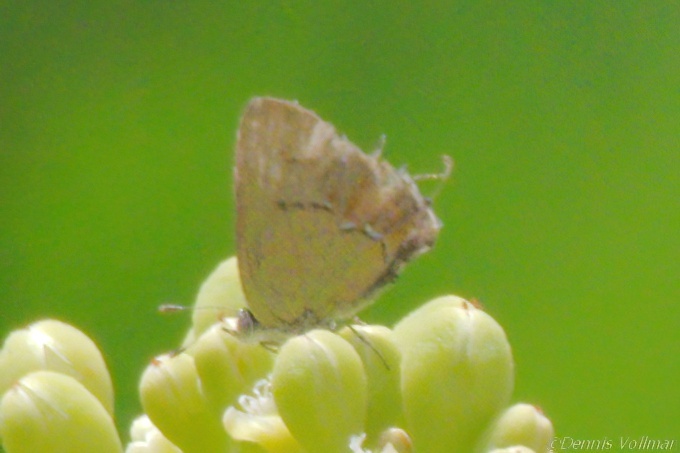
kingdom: Animalia
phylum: Arthropoda
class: Insecta
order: Lepidoptera
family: Lycaenidae
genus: Thecla
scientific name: Thecla maesites
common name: Verde azul hairstreak
